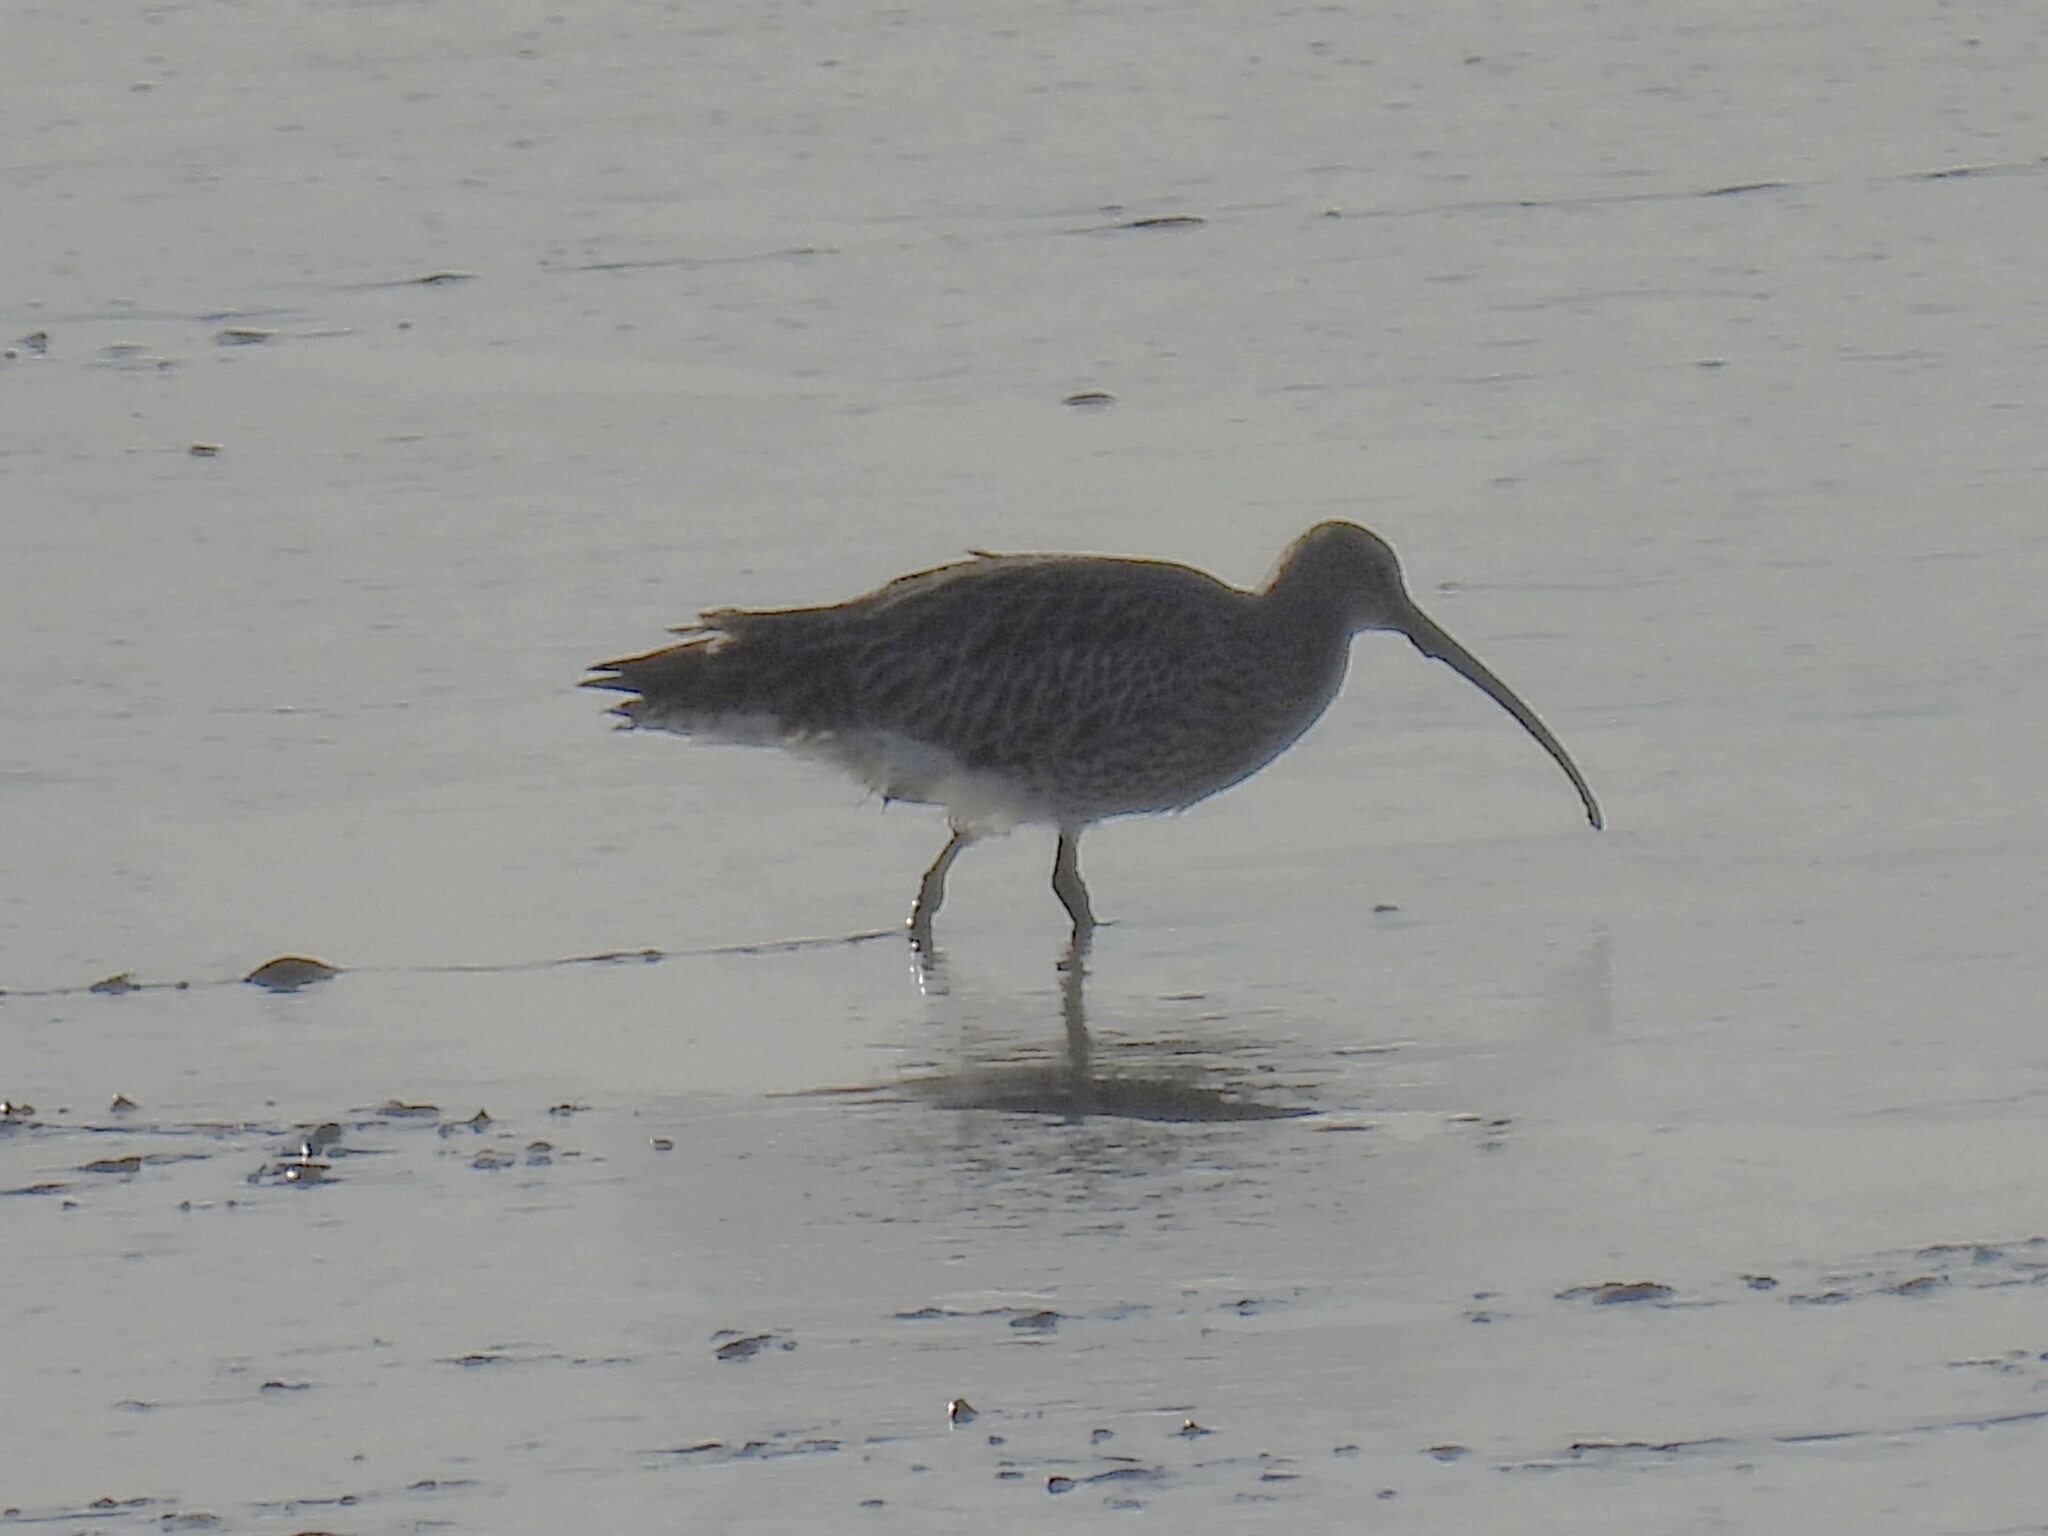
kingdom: Animalia
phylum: Chordata
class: Aves
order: Charadriiformes
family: Scolopacidae
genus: Numenius
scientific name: Numenius arquata
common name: Eurasian curlew
